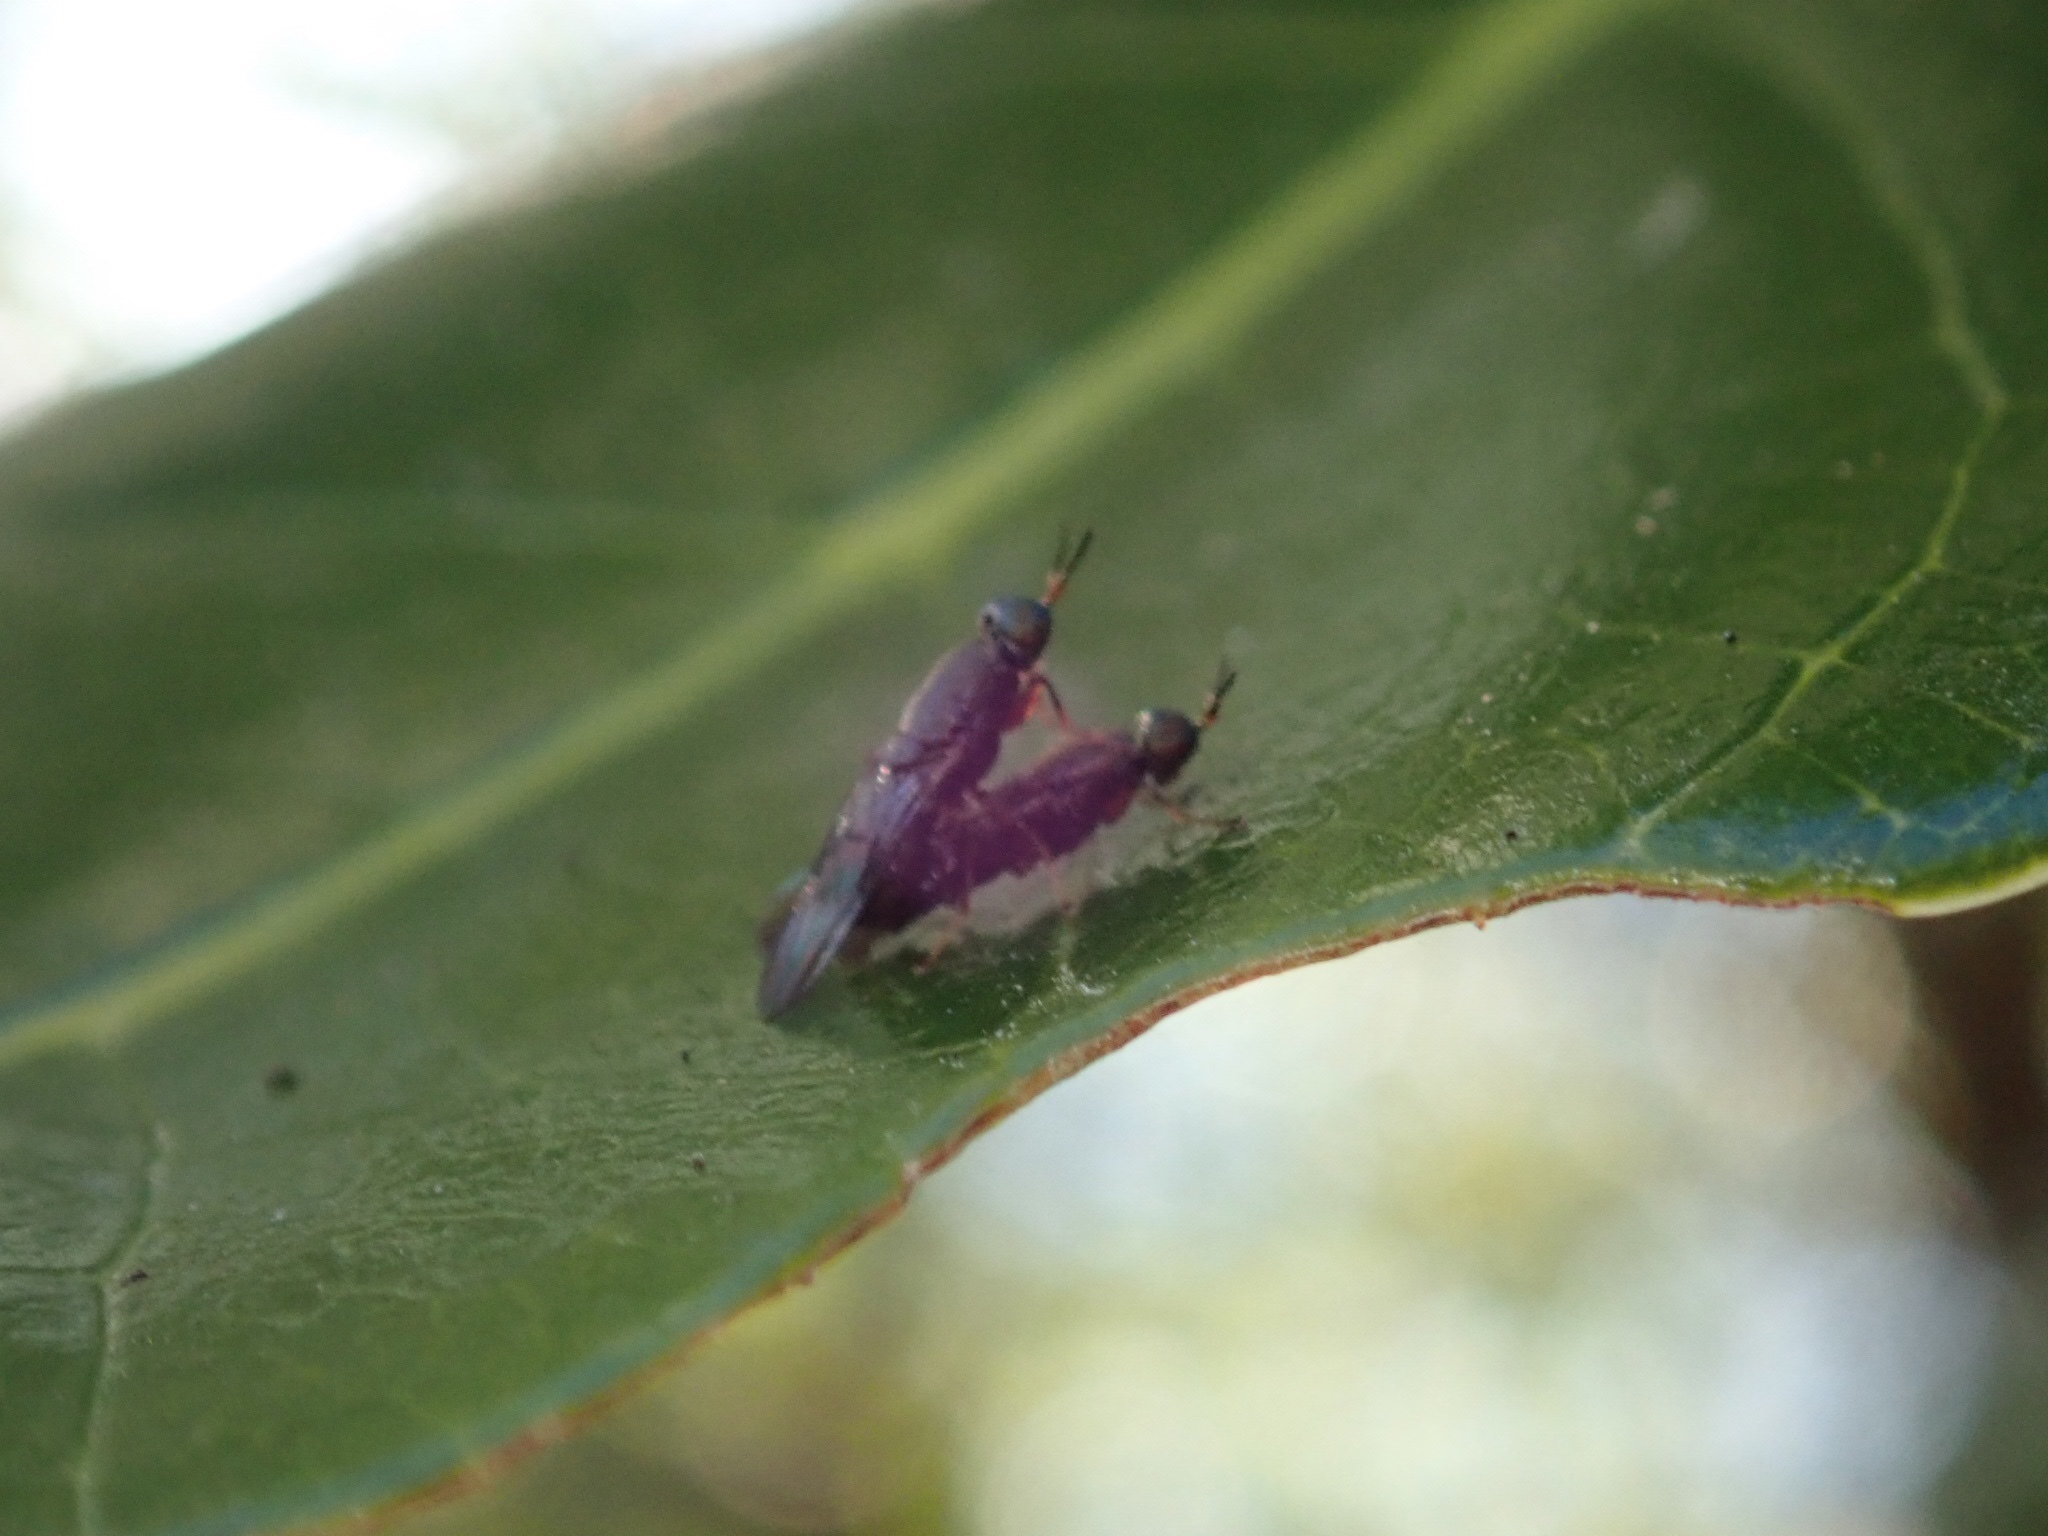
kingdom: Animalia
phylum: Arthropoda
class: Insecta
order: Diptera
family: Stratiomyidae
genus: Dysbiota
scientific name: Dysbiota peregrina
